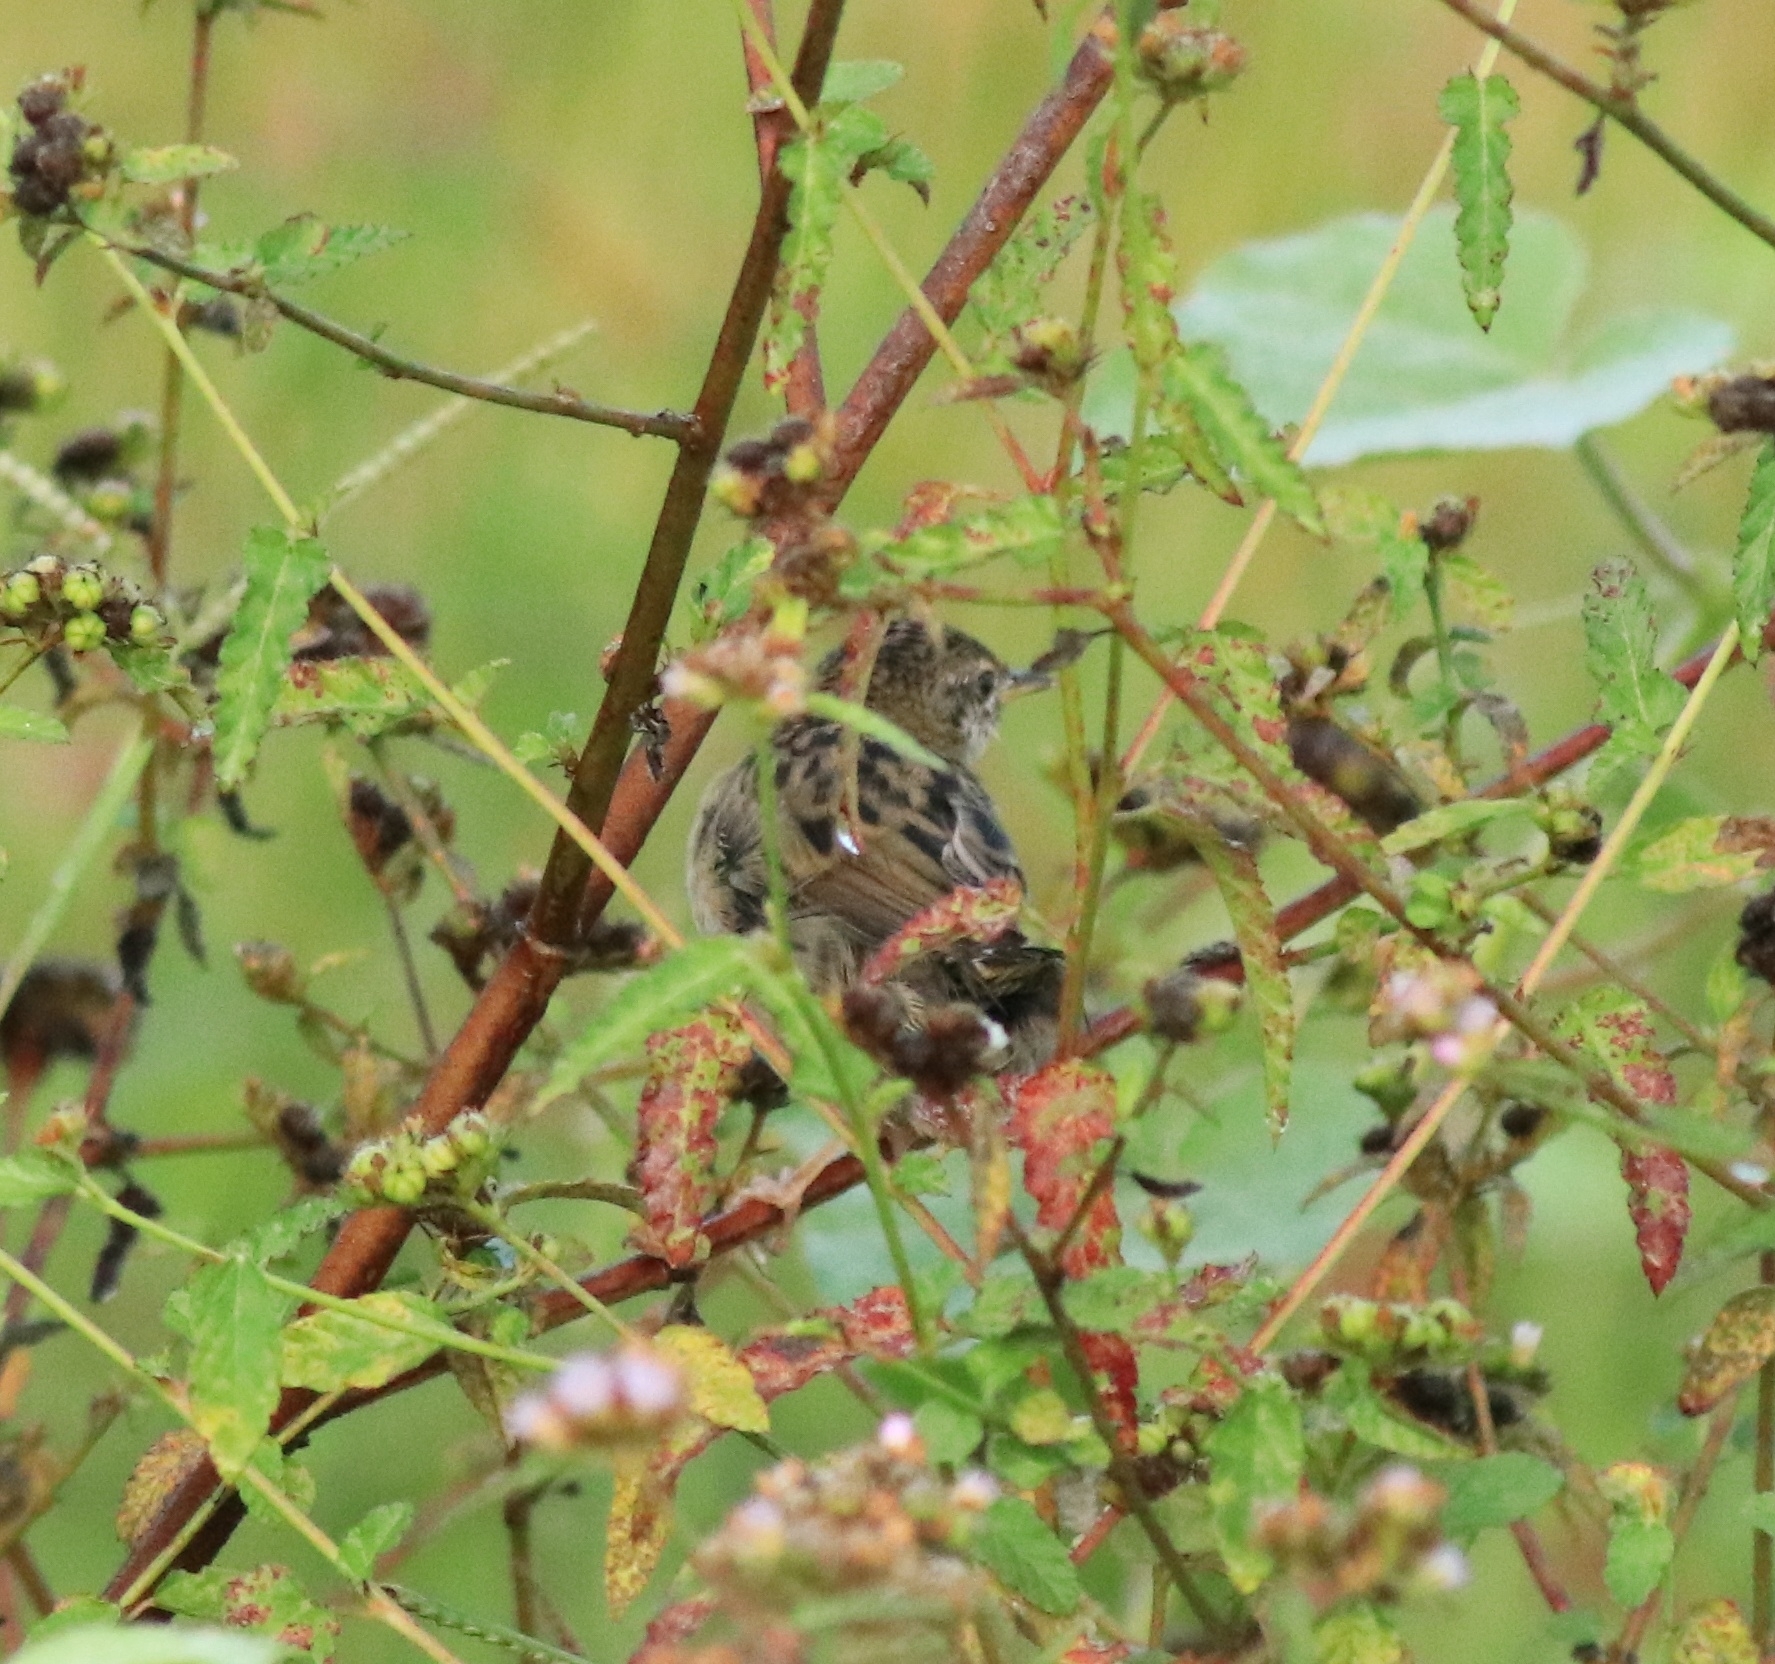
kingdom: Animalia
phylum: Chordata
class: Aves
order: Passeriformes
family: Locustellidae
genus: Locustella
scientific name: Locustella naevia
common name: Common grasshopper warbler
